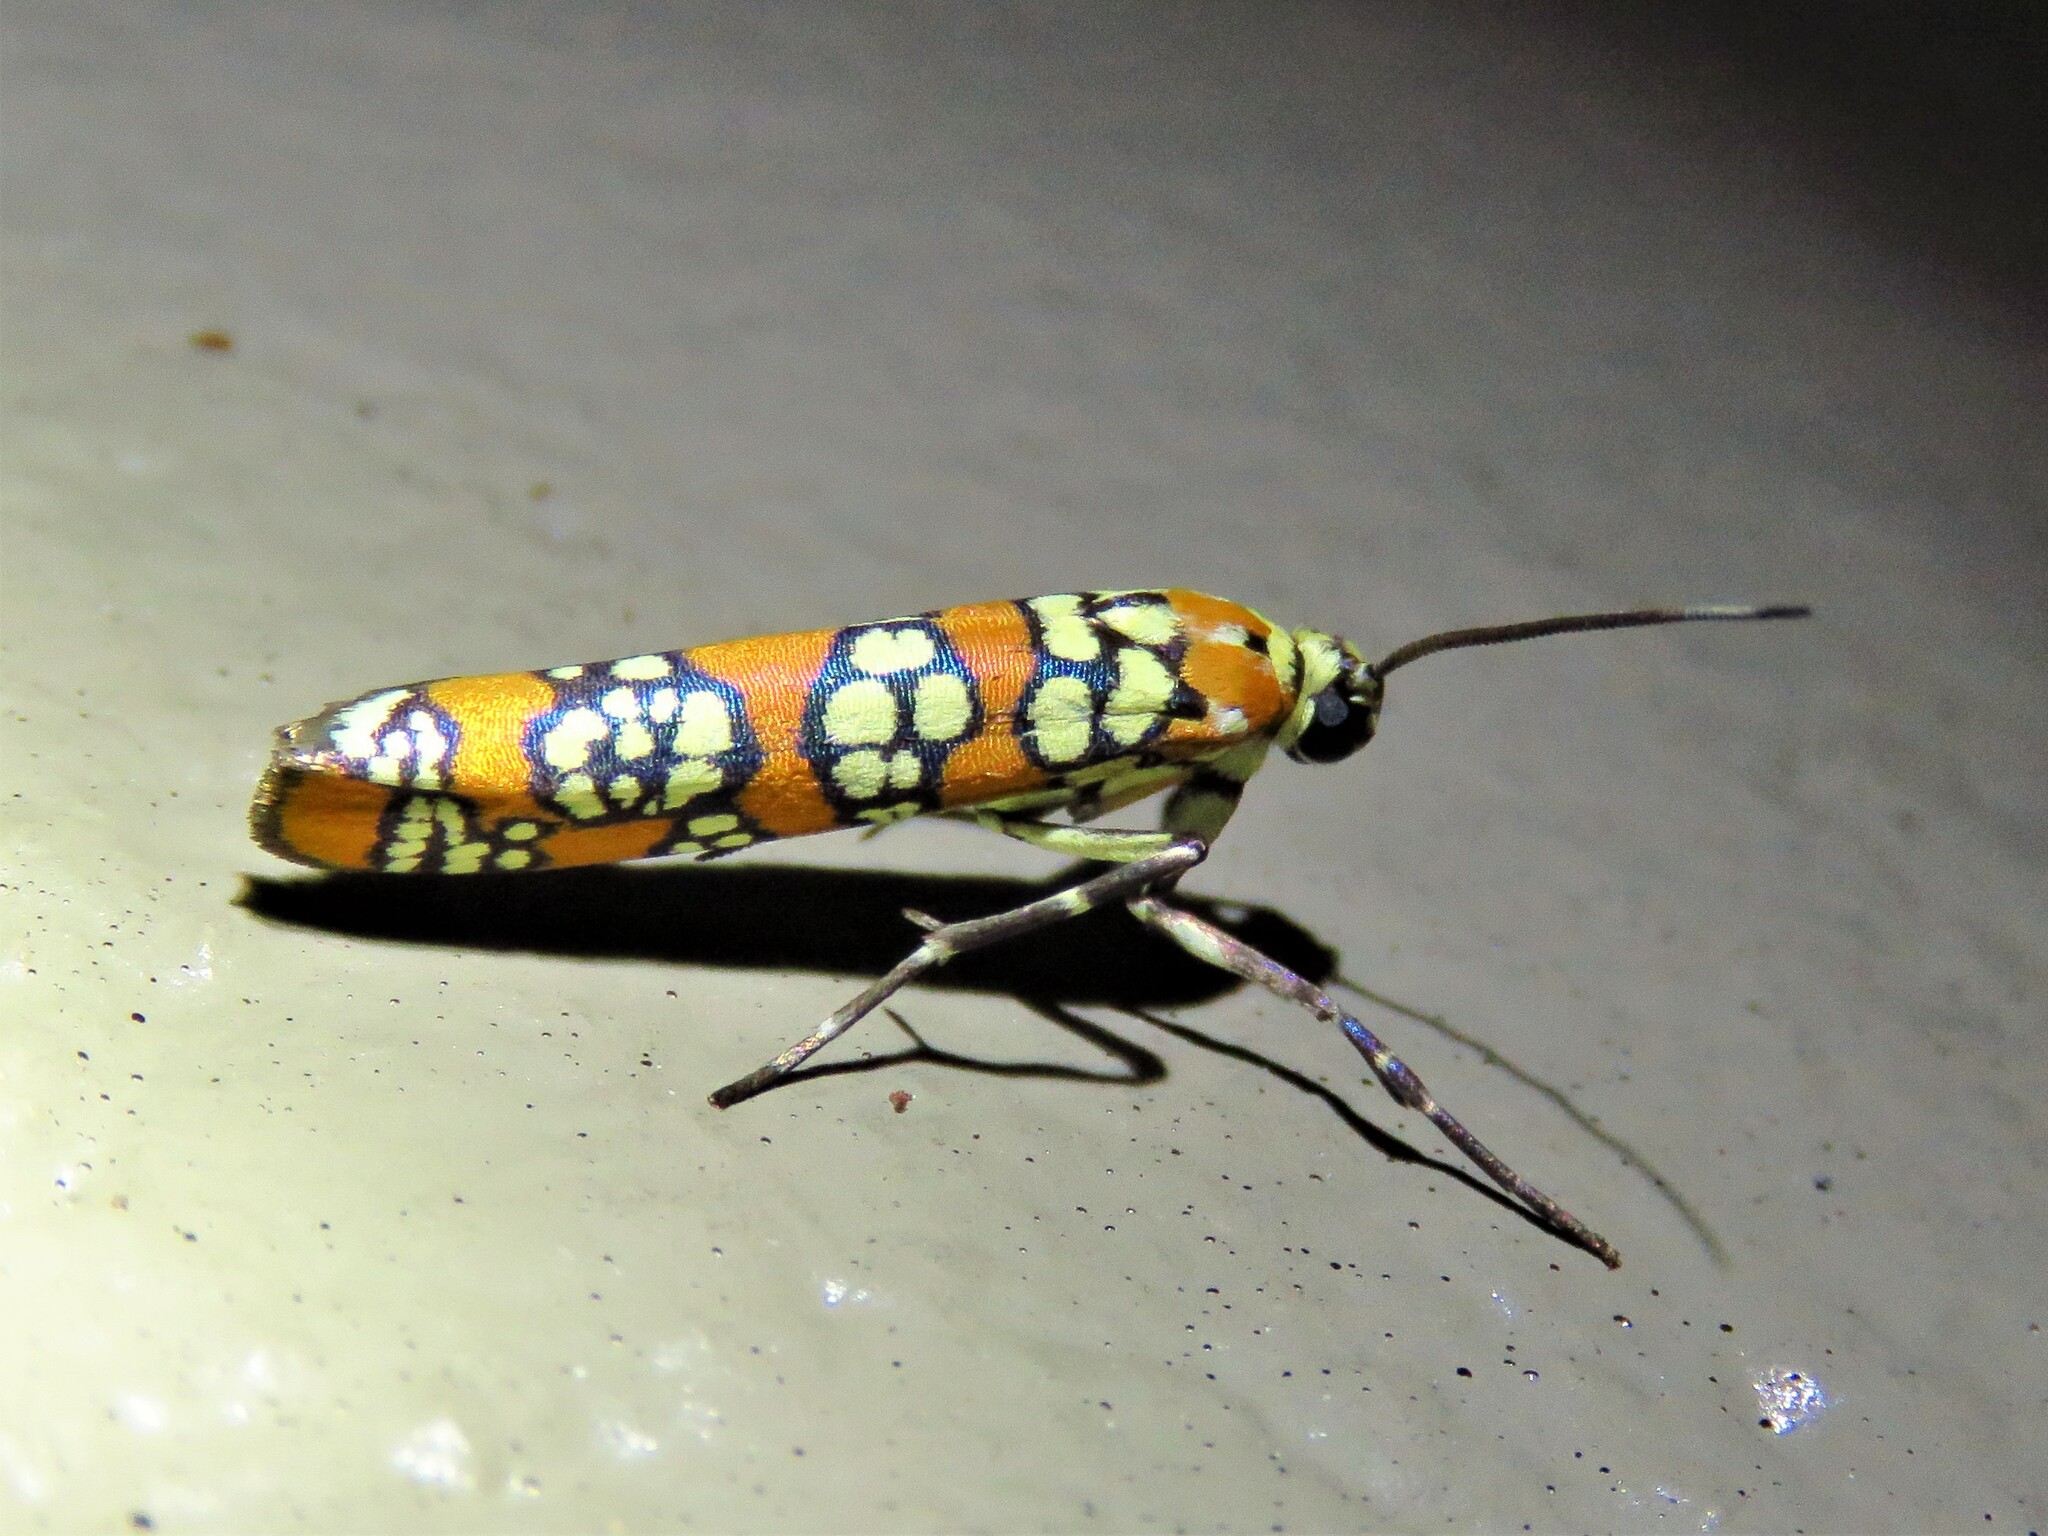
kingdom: Animalia
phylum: Arthropoda
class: Insecta
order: Lepidoptera
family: Attevidae
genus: Atteva
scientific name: Atteva punctella
